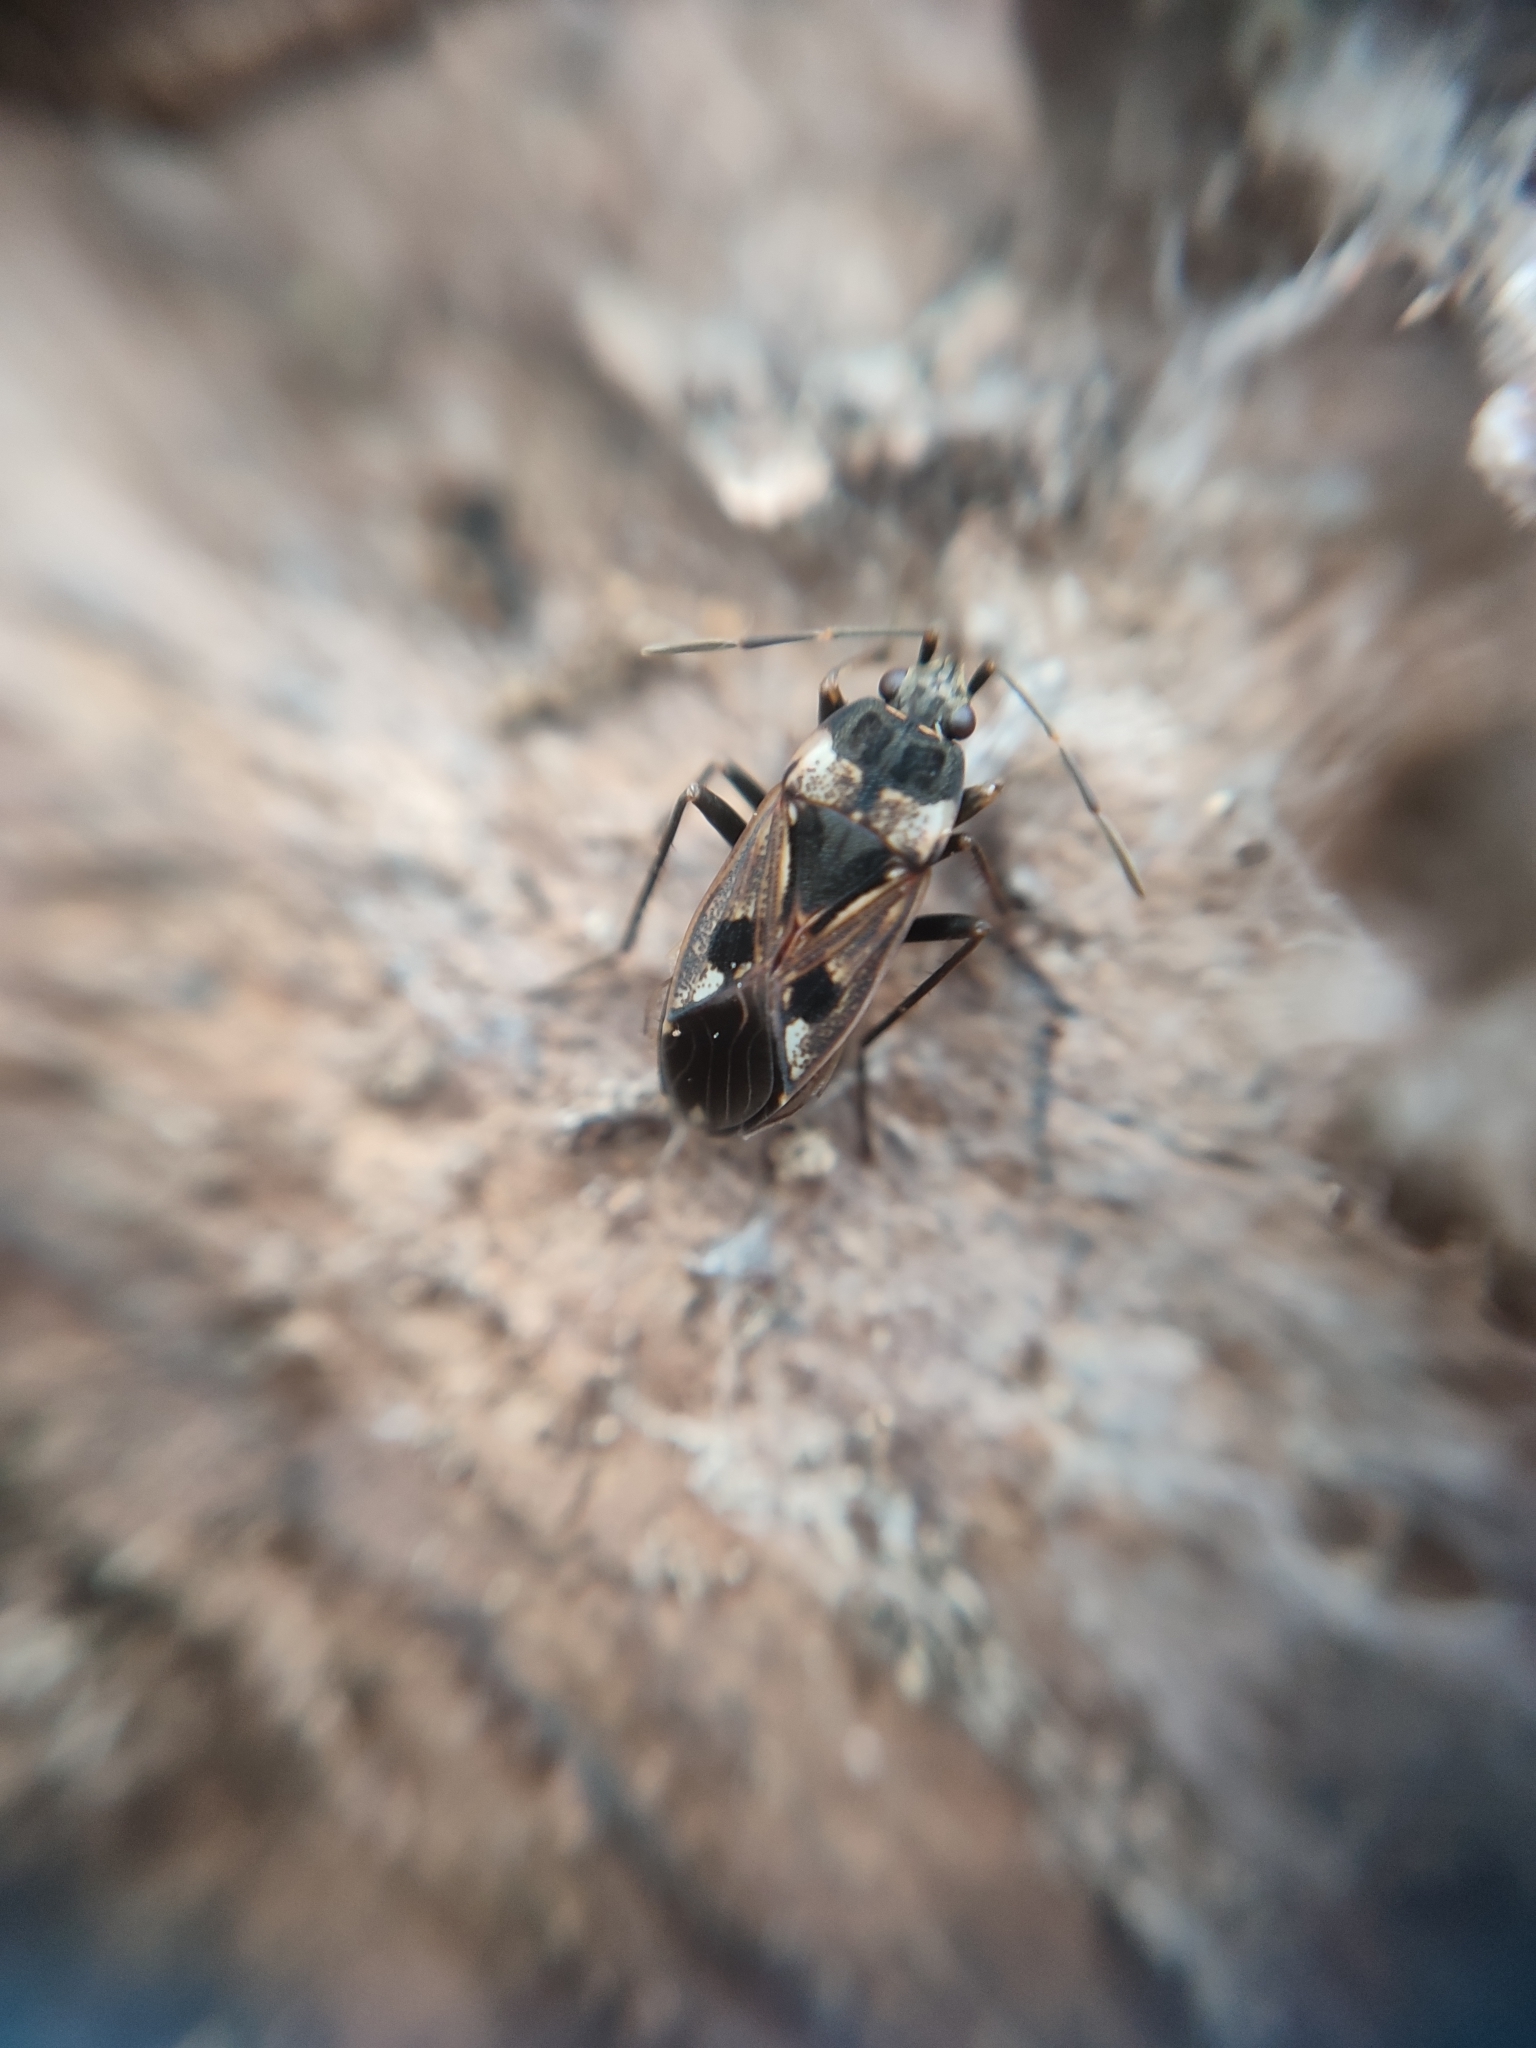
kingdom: Animalia
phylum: Arthropoda
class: Insecta
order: Hemiptera
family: Rhyparochromidae
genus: Rhyparochromus
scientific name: Rhyparochromus vulgaris
